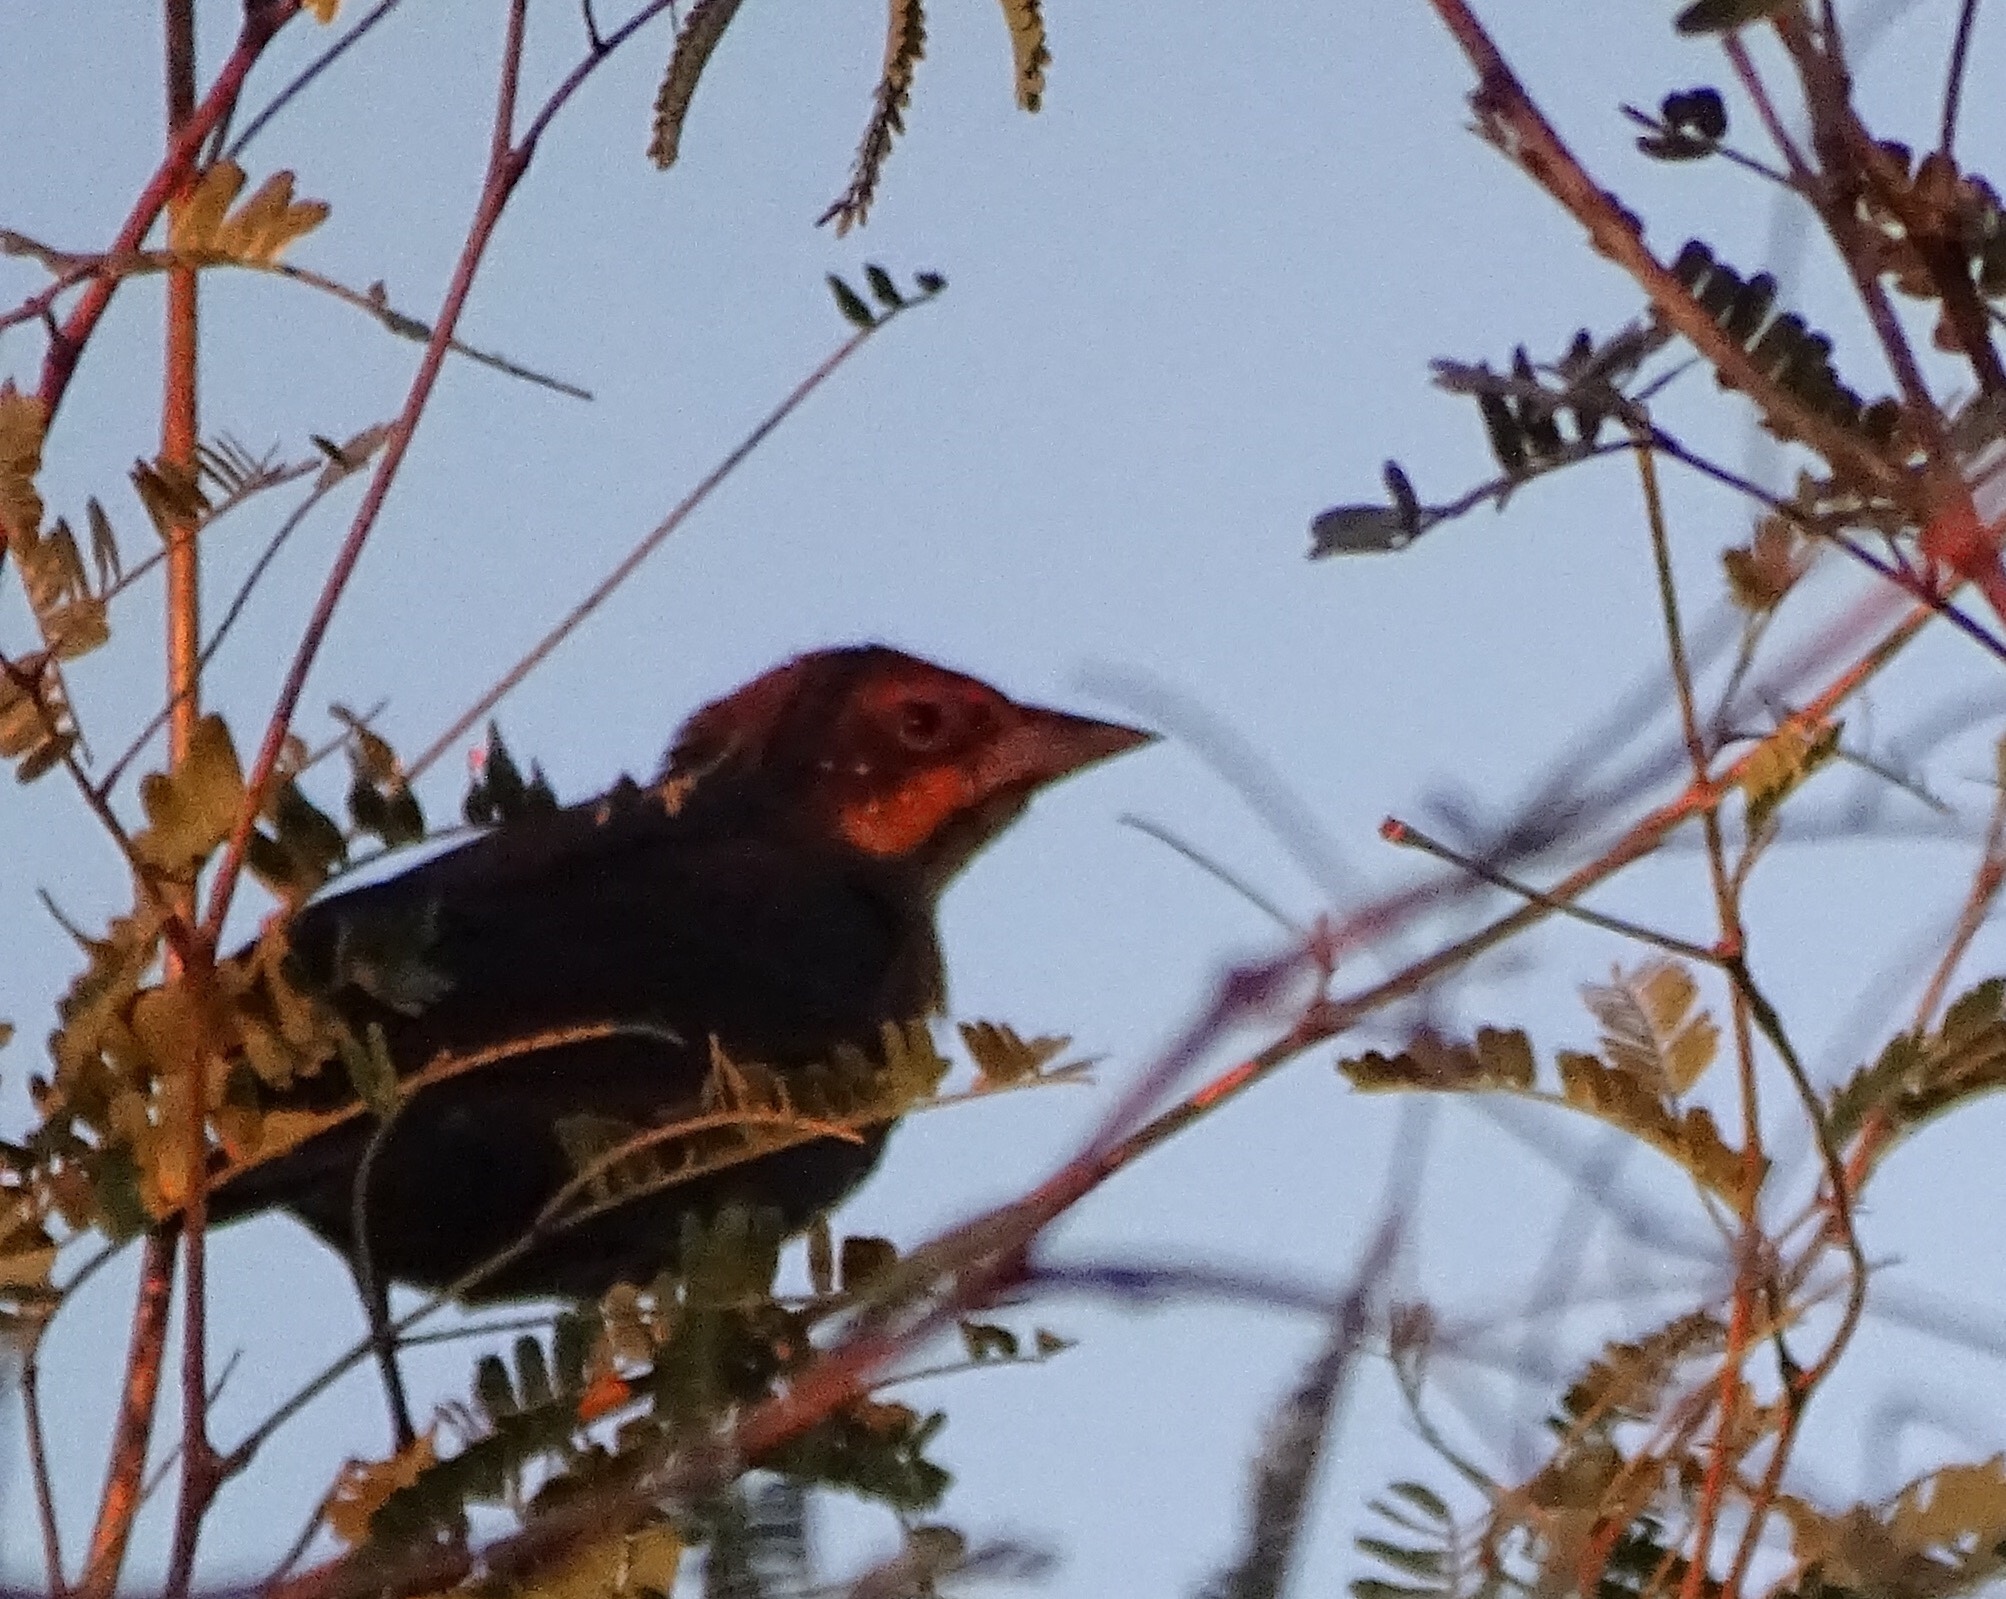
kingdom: Animalia
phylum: Chordata
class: Aves
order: Passeriformes
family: Icteridae
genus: Xanthocephalus
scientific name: Xanthocephalus xanthocephalus
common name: Yellow-headed blackbird
